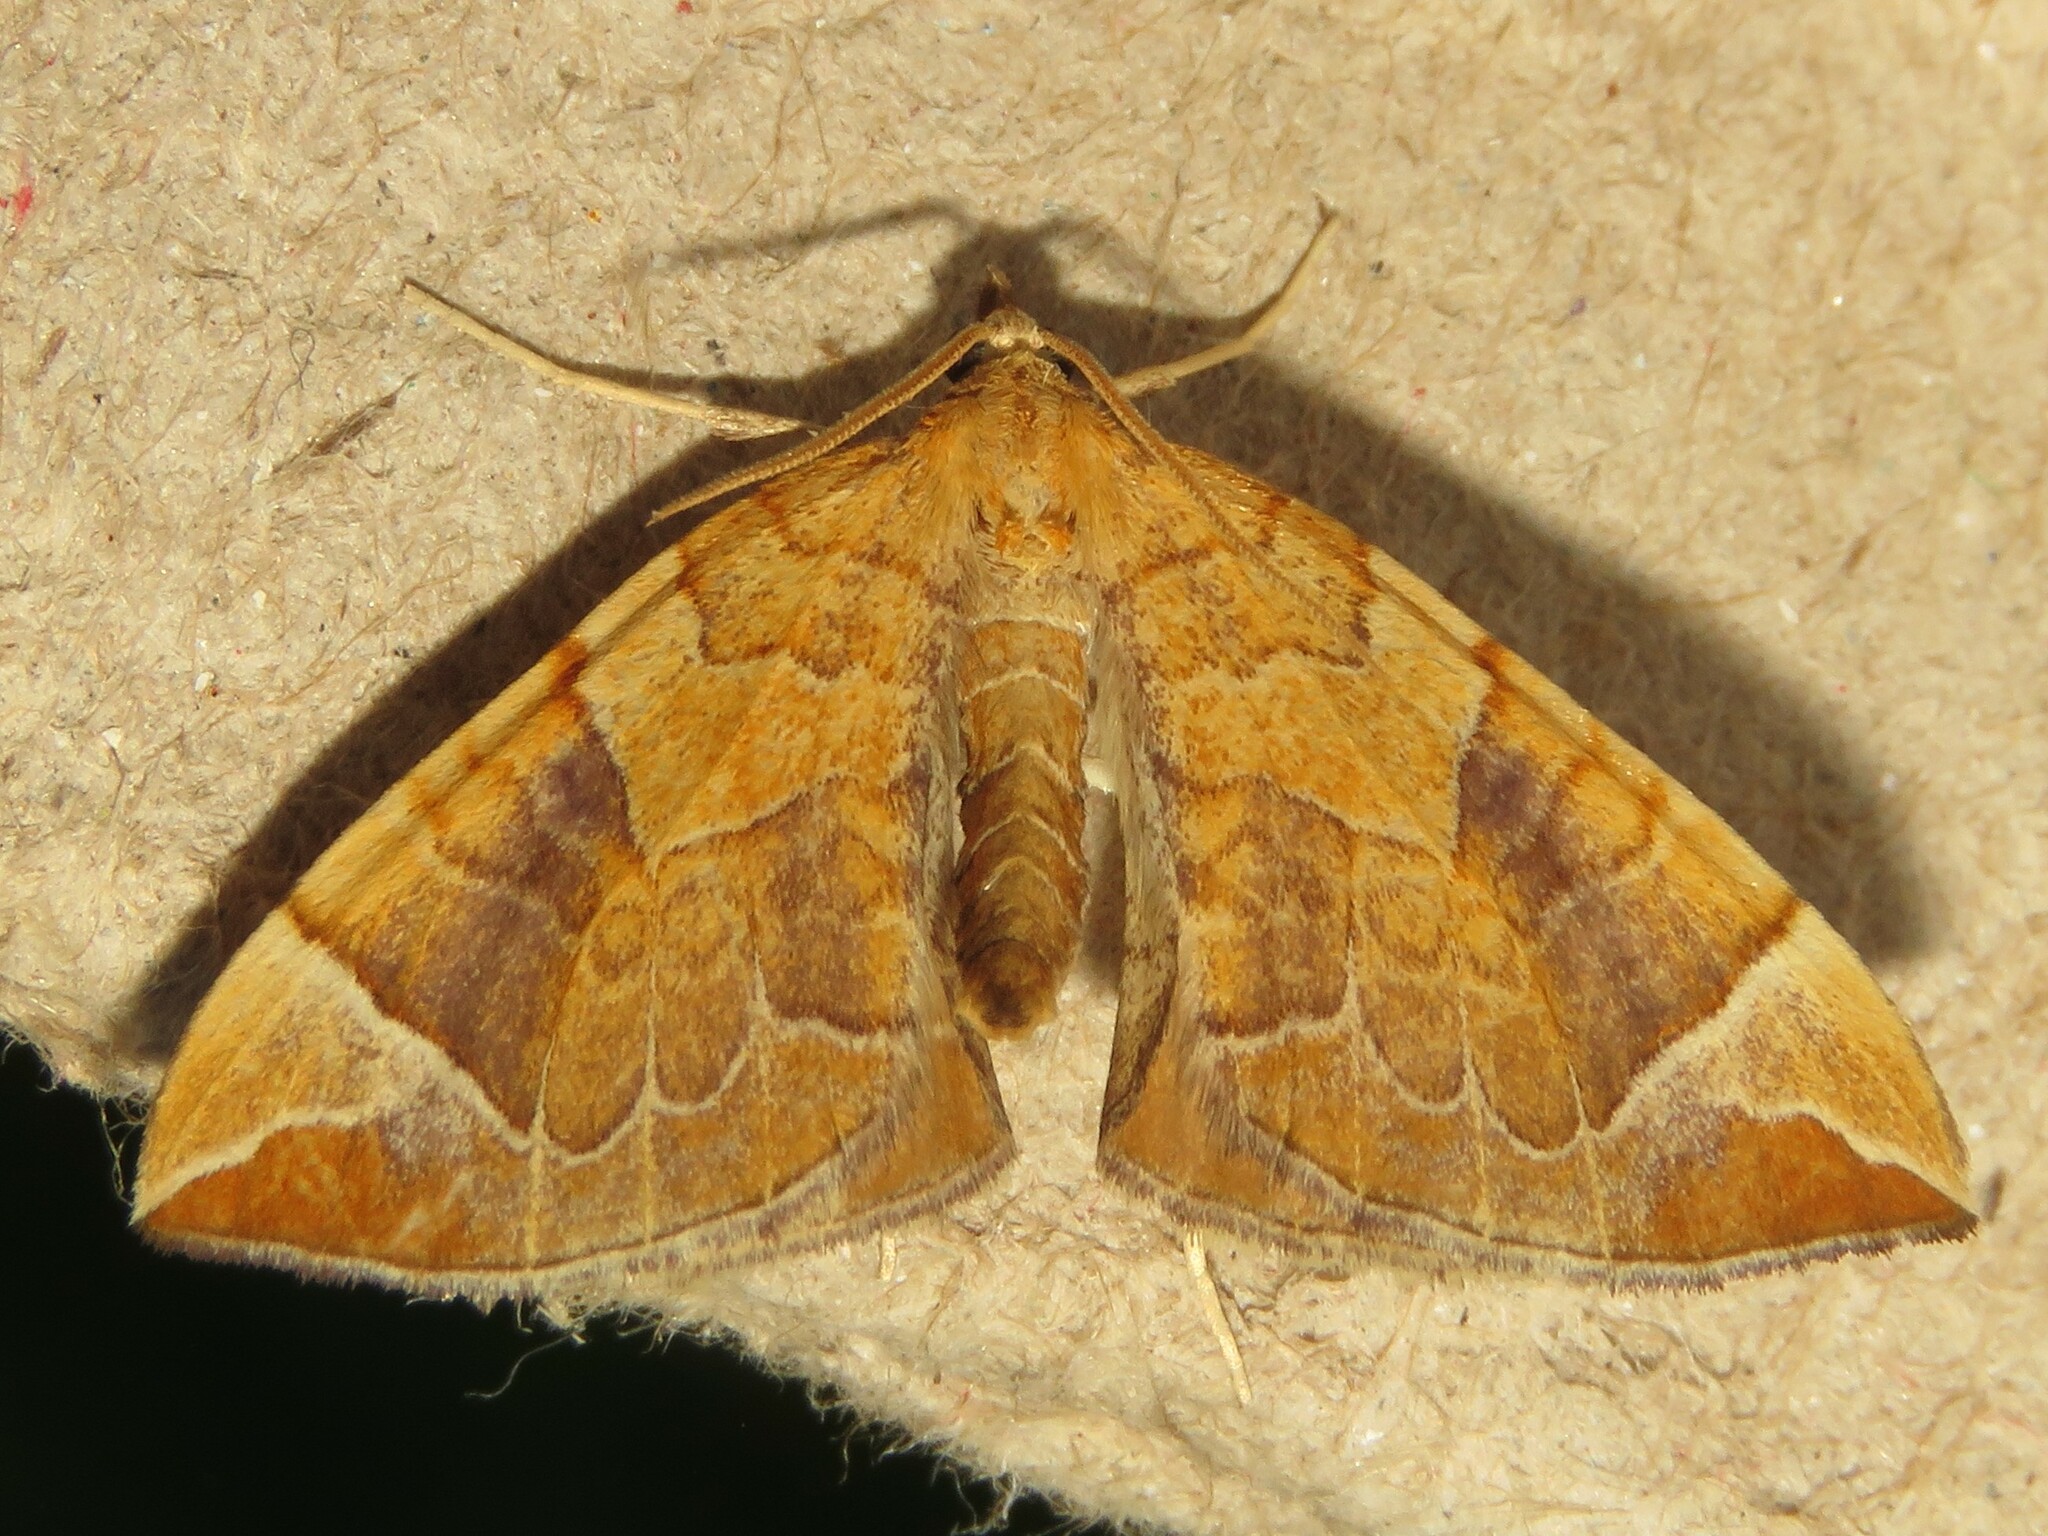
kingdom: Animalia
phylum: Arthropoda
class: Insecta
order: Lepidoptera
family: Geometridae
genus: Eulithis
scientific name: Eulithis testata
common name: Chevron
